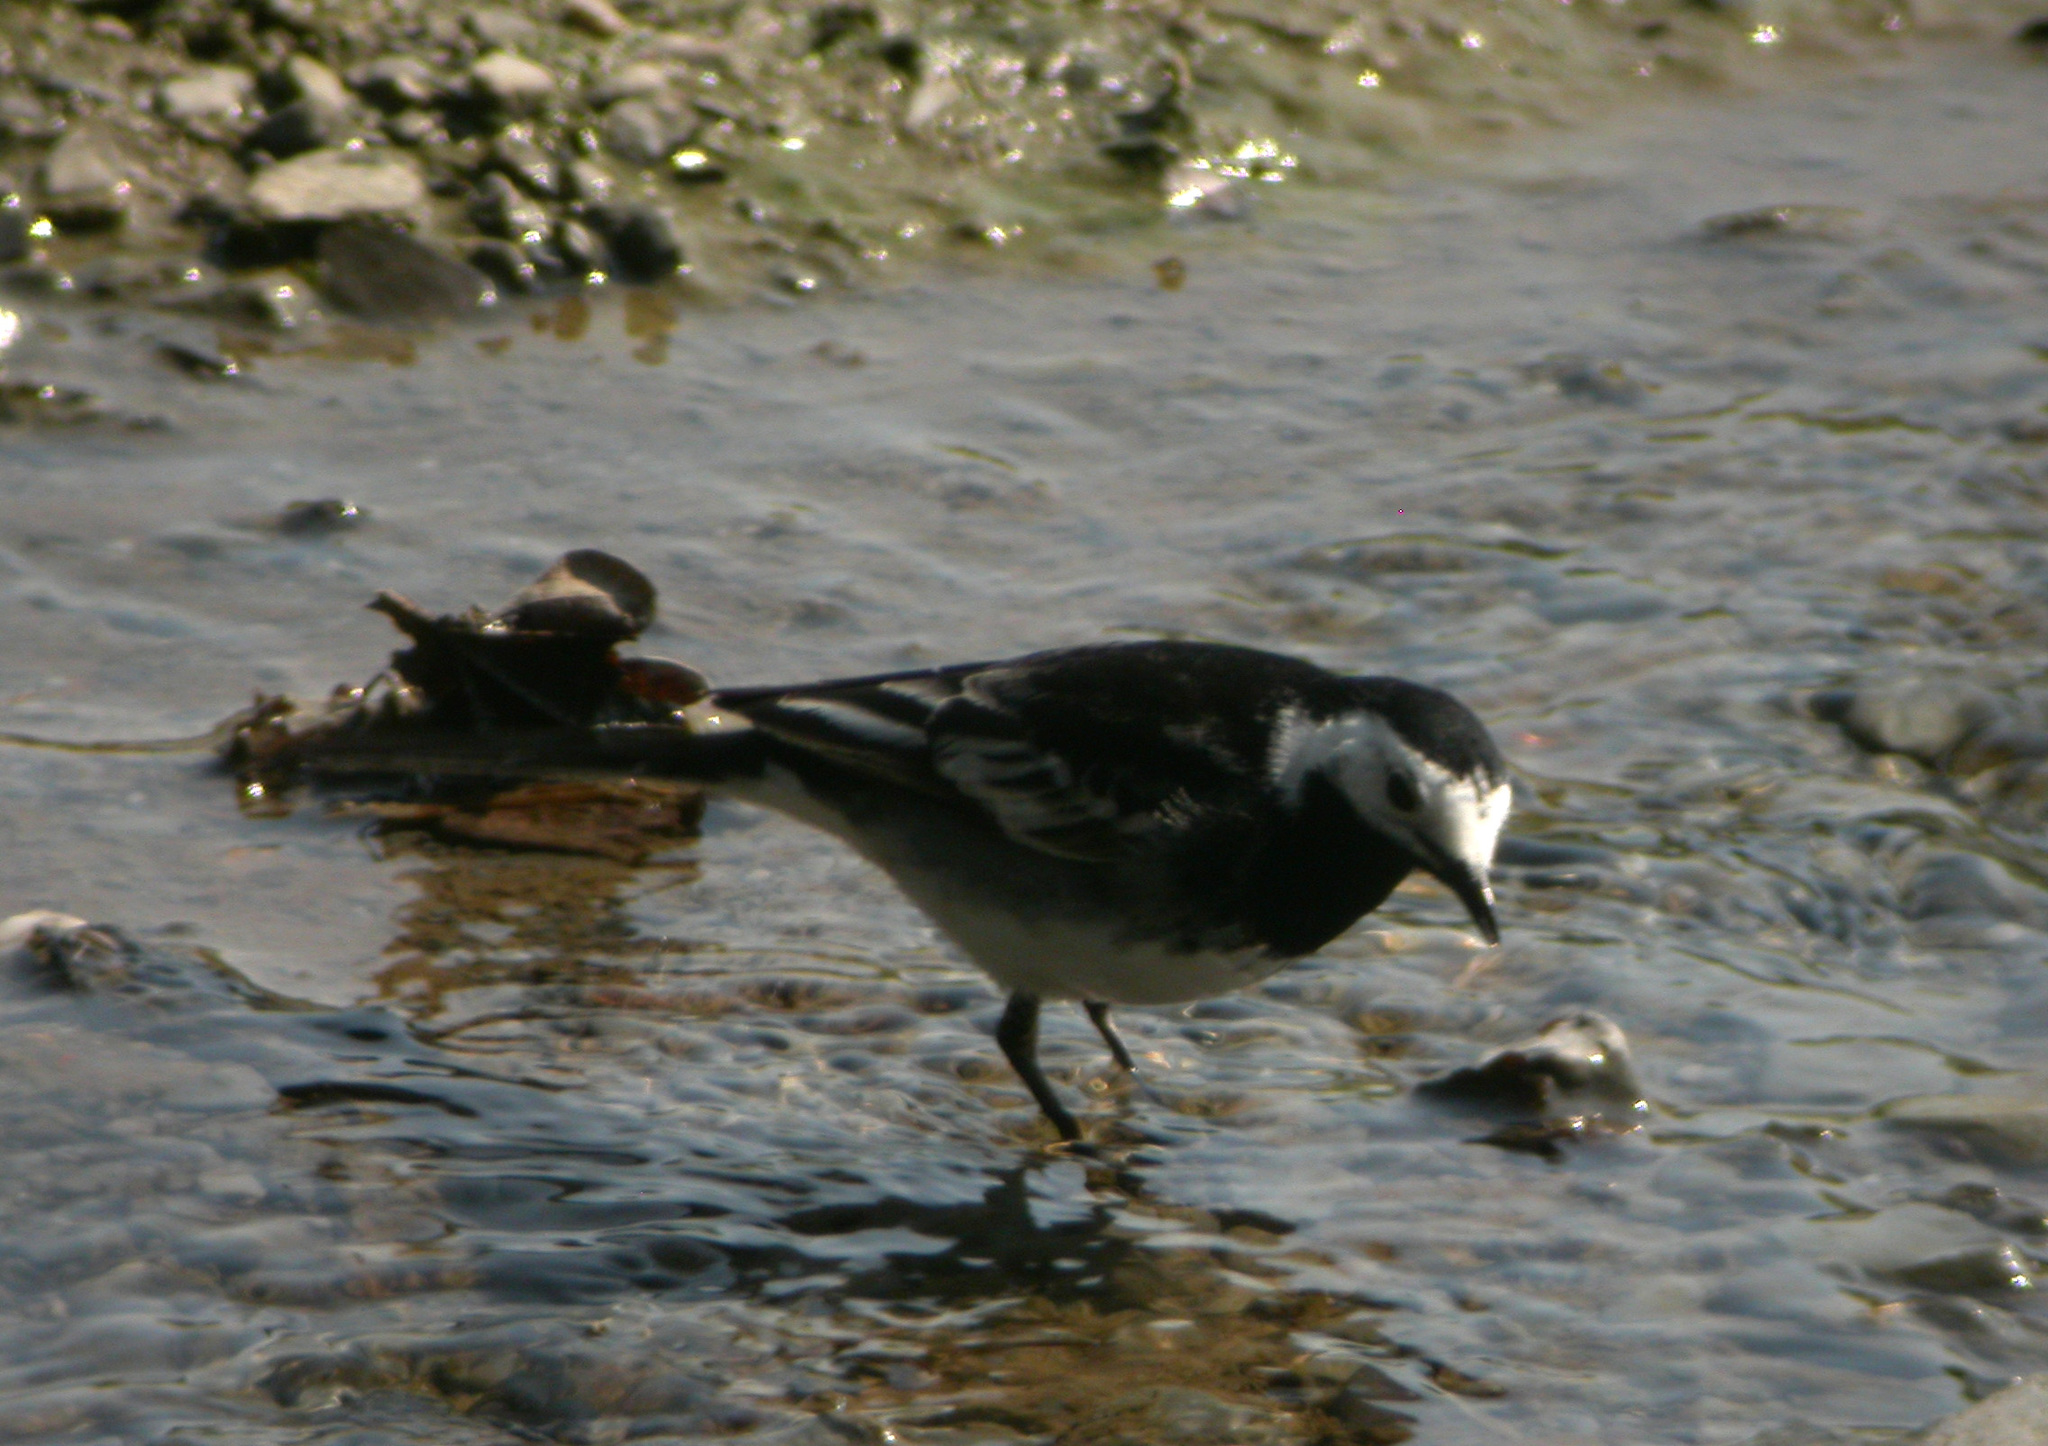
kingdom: Animalia
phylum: Chordata
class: Aves
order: Passeriformes
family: Motacillidae
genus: Motacilla
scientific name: Motacilla alba
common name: White wagtail
